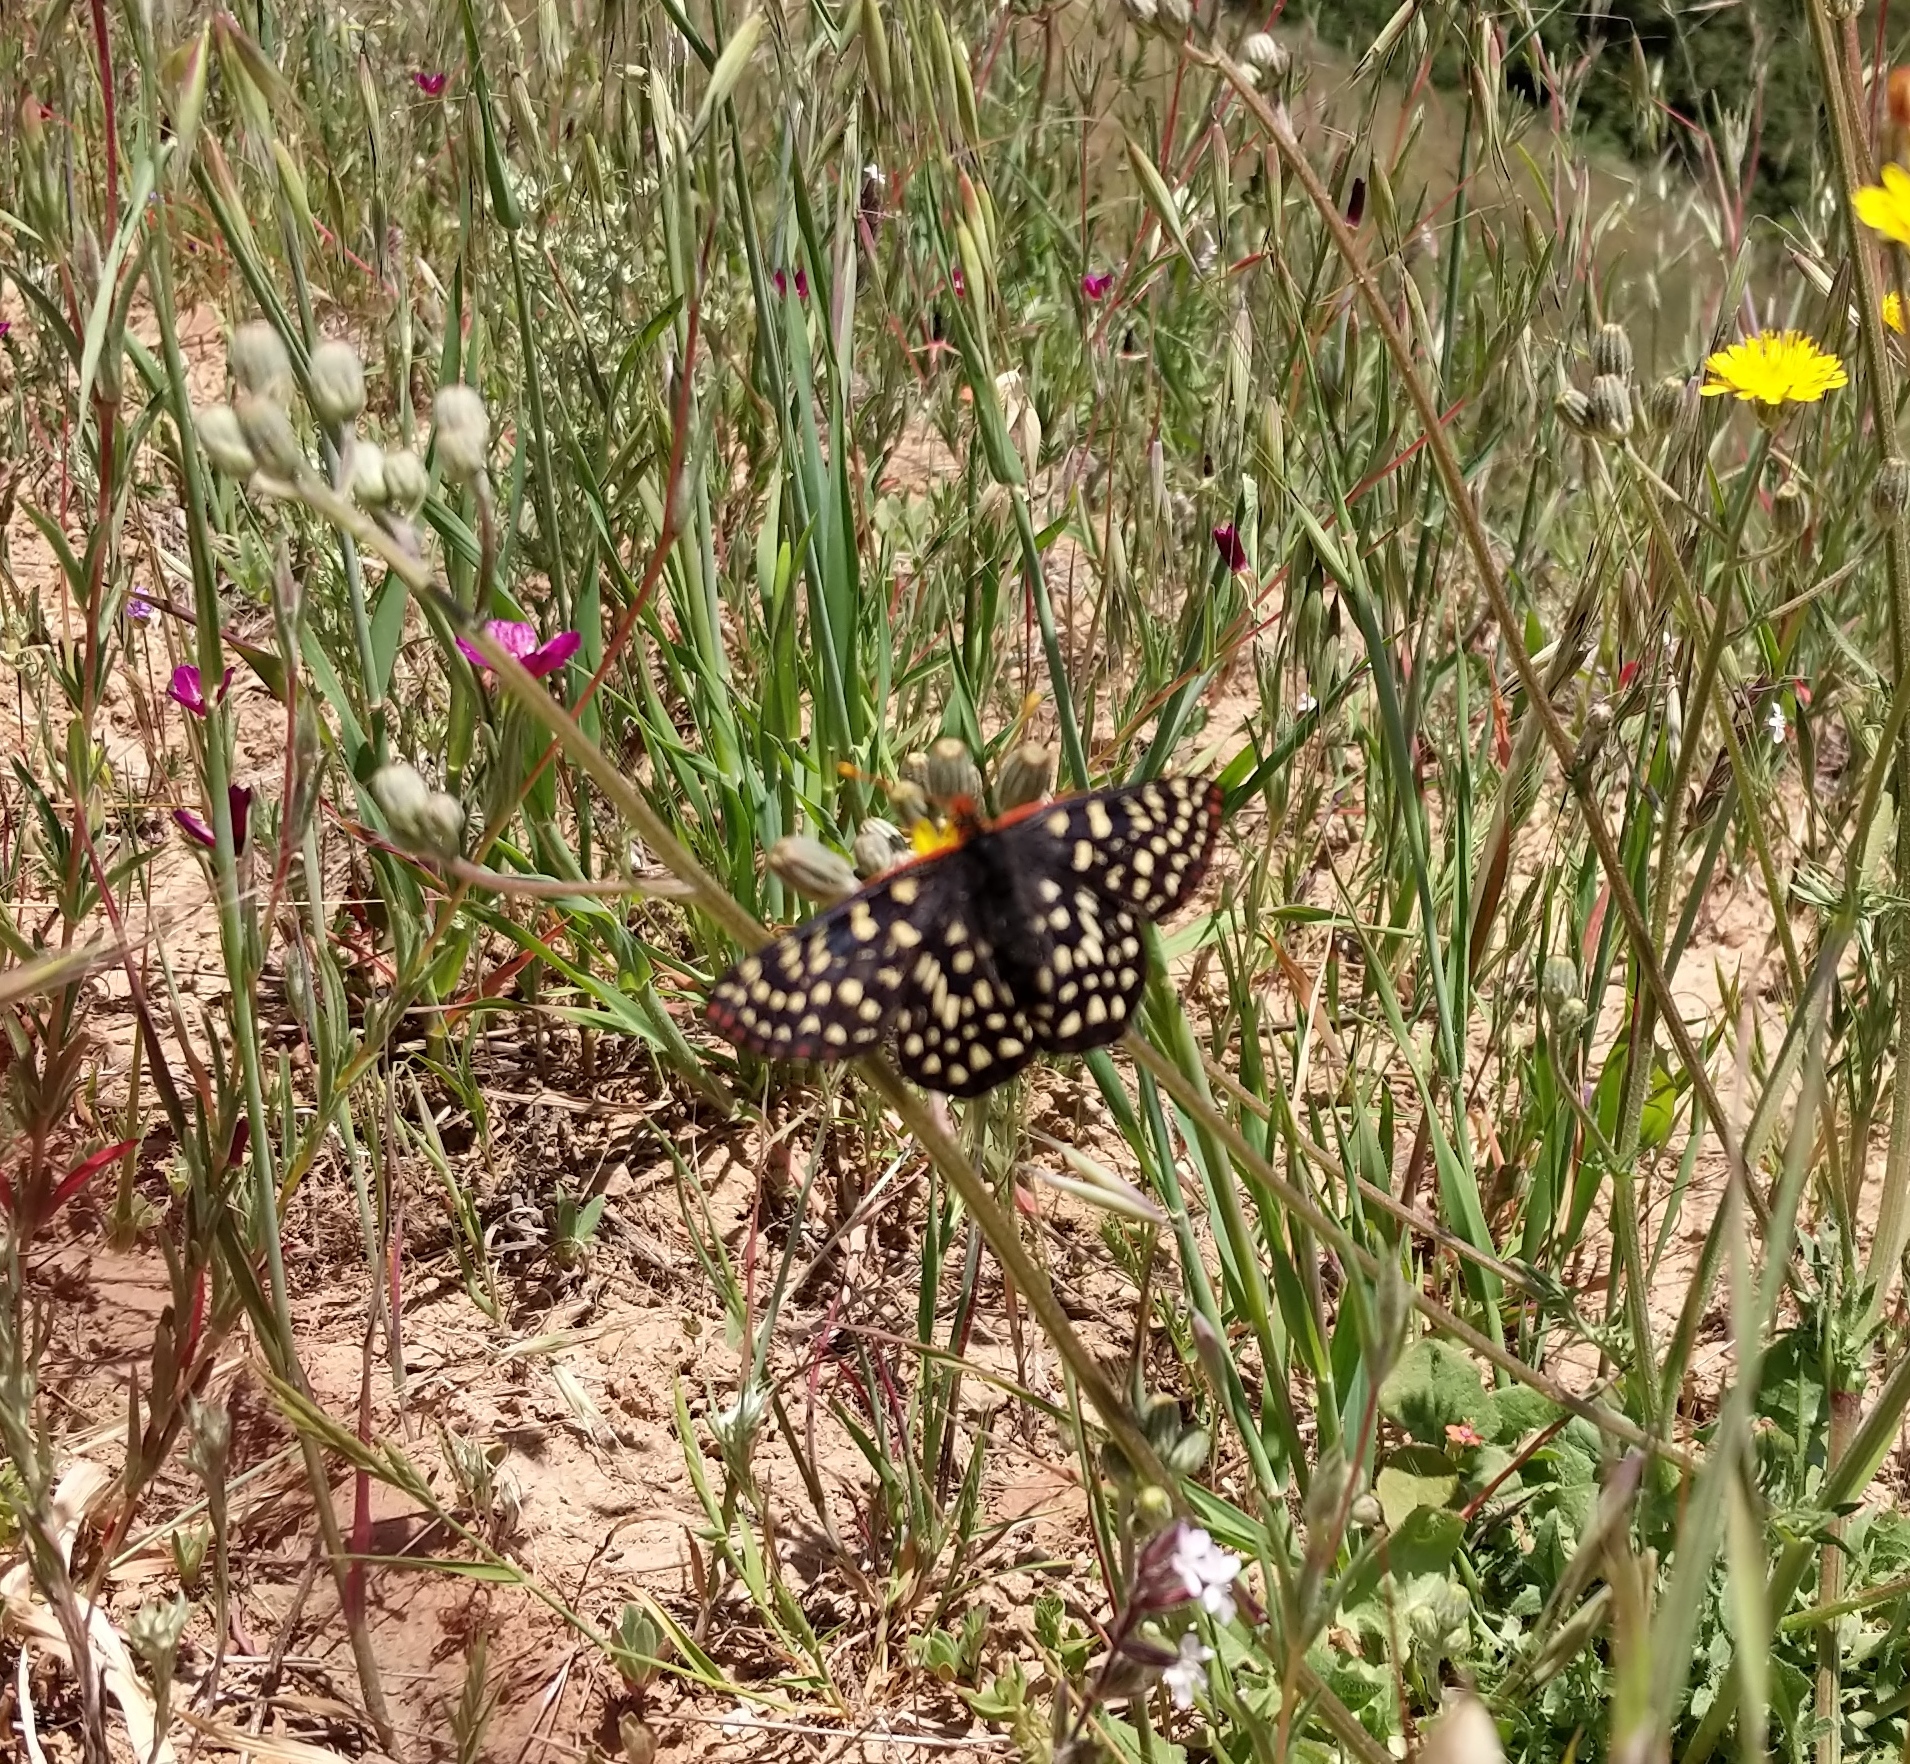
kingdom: Animalia
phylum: Arthropoda
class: Insecta
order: Lepidoptera
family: Nymphalidae
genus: Occidryas
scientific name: Occidryas chalcedona
